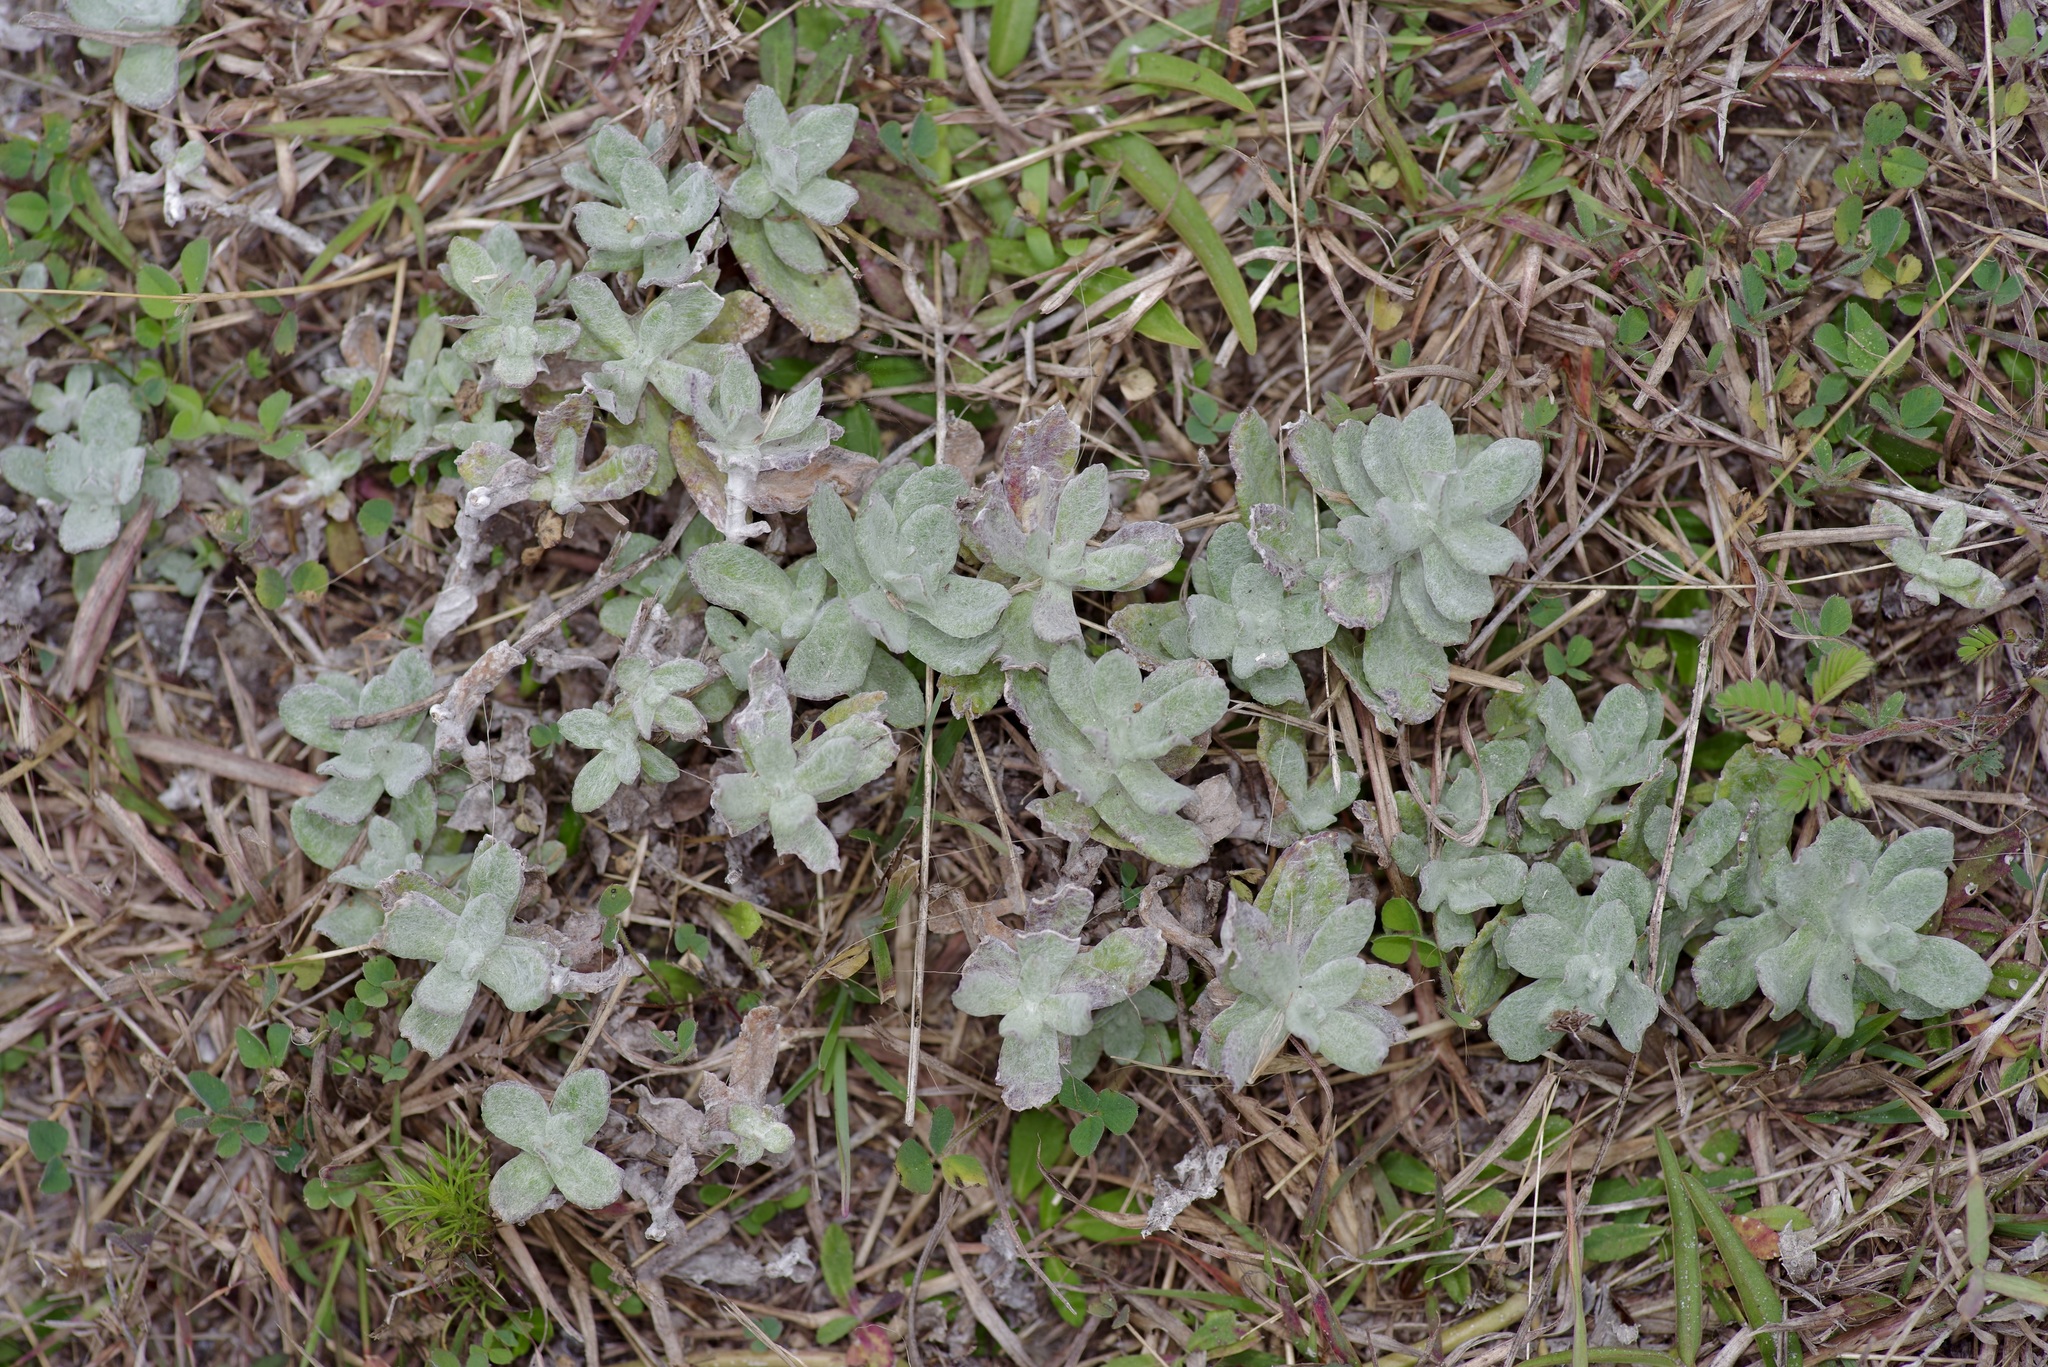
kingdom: Plantae
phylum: Tracheophyta
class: Magnoliopsida
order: Lamiales
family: Plantaginaceae
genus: Stemodia
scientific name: Stemodia lanata
